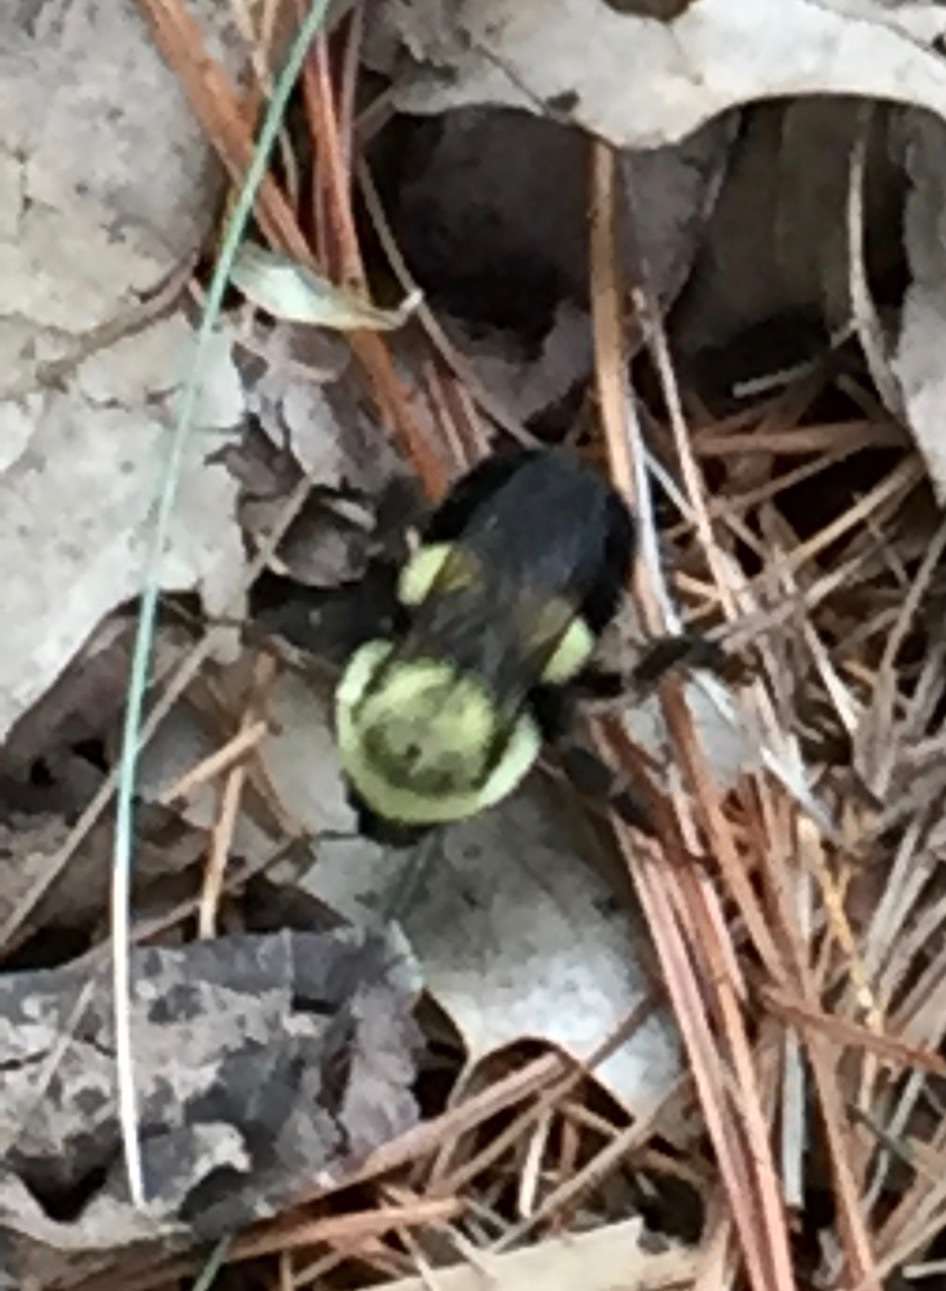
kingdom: Animalia
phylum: Arthropoda
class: Insecta
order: Hymenoptera
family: Apidae
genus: Bombus
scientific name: Bombus impatiens
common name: Common eastern bumble bee
